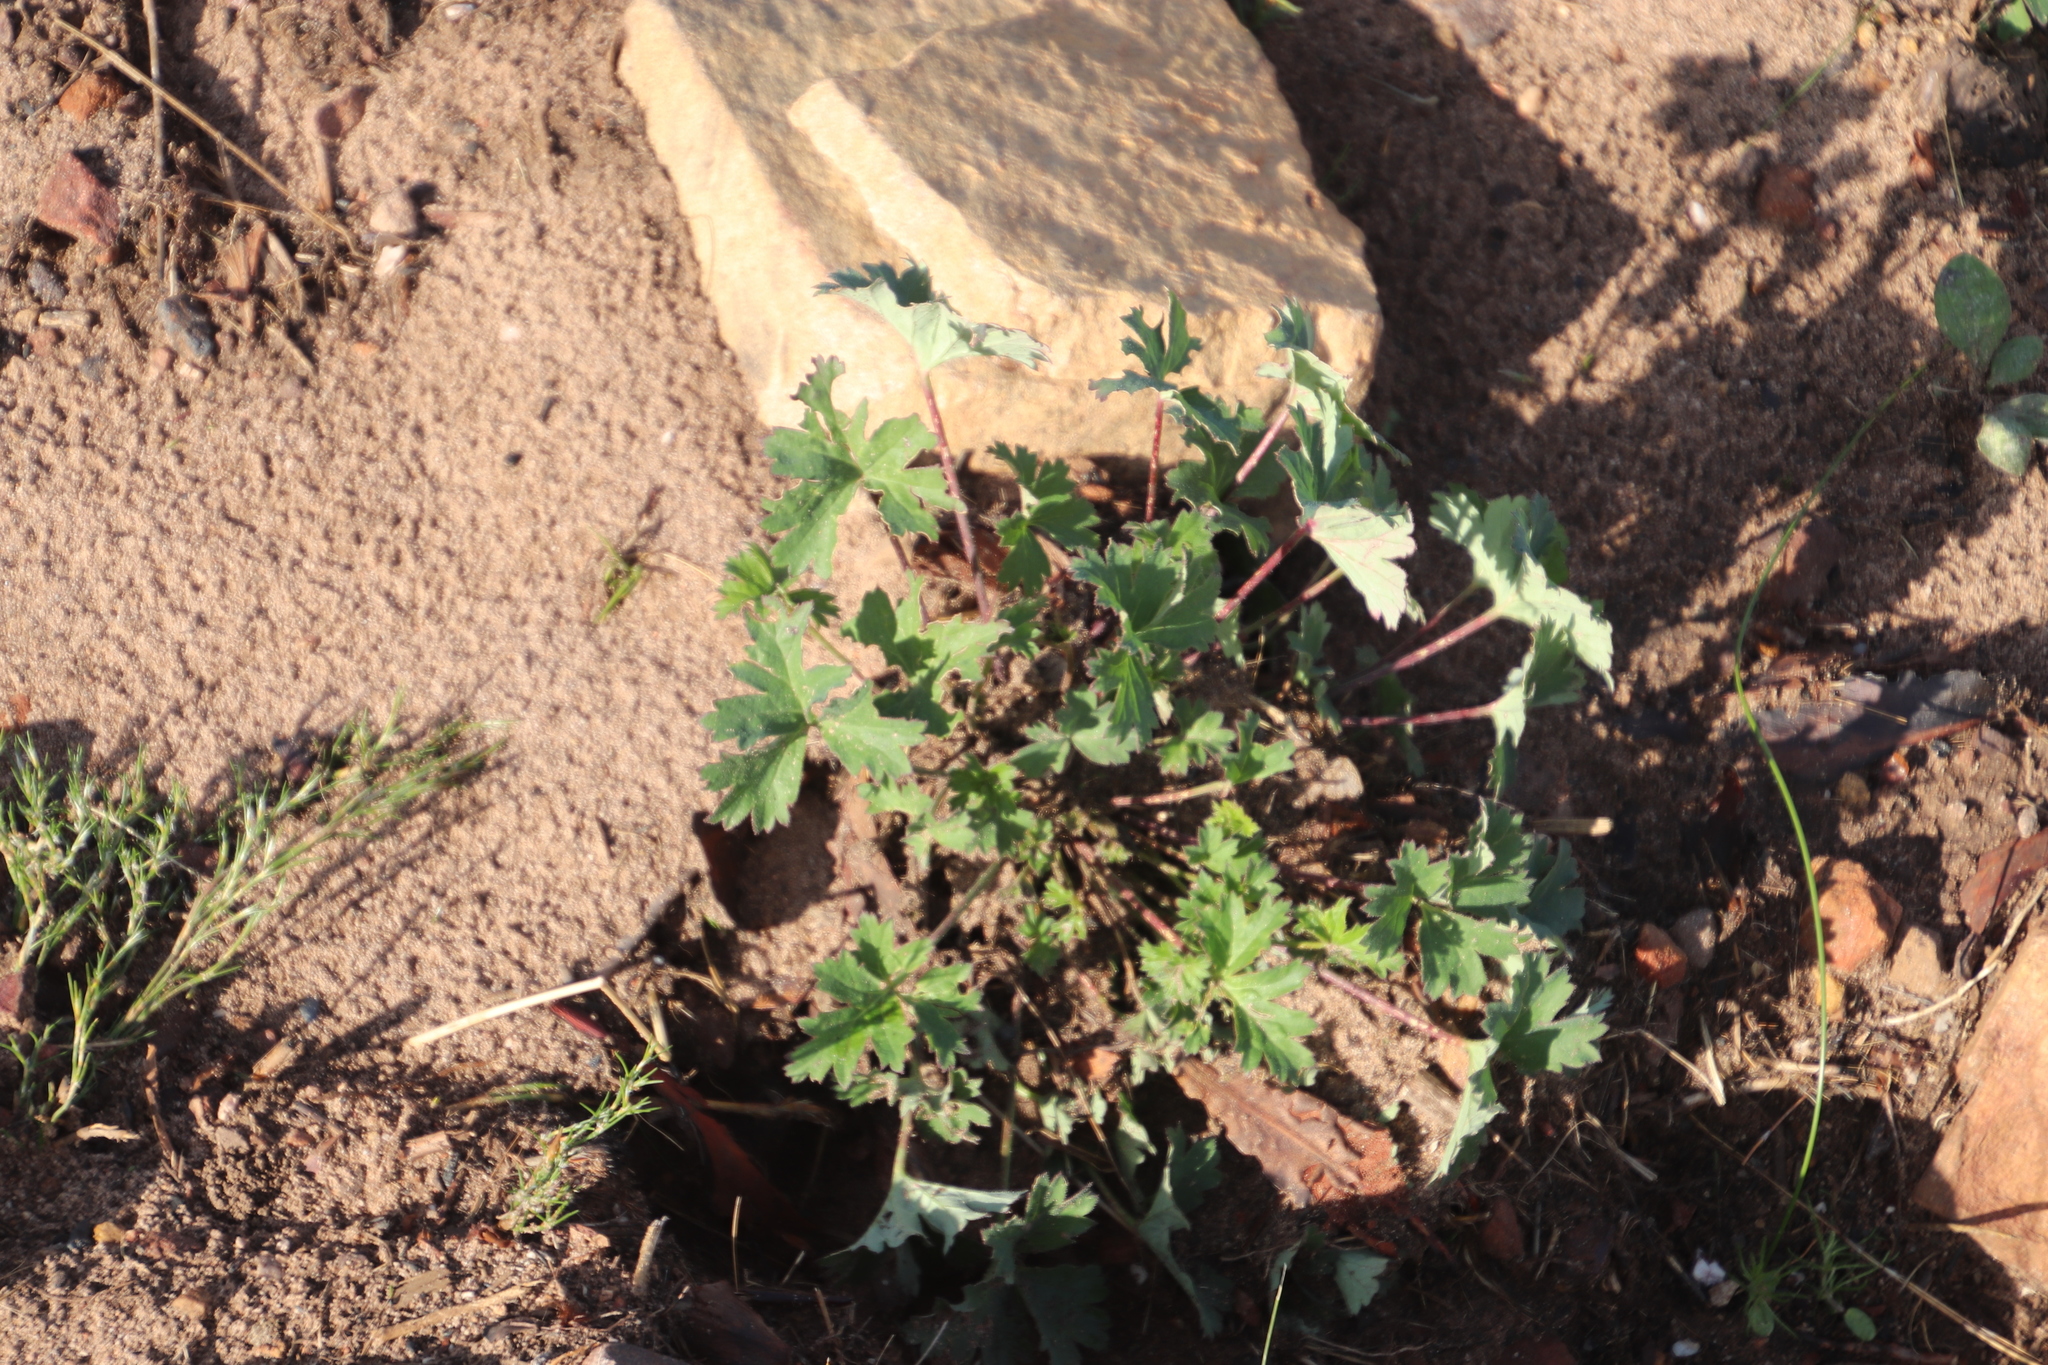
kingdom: Plantae
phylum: Tracheophyta
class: Magnoliopsida
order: Geraniales
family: Geraniaceae
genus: Pelargonium
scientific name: Pelargonium patulum
